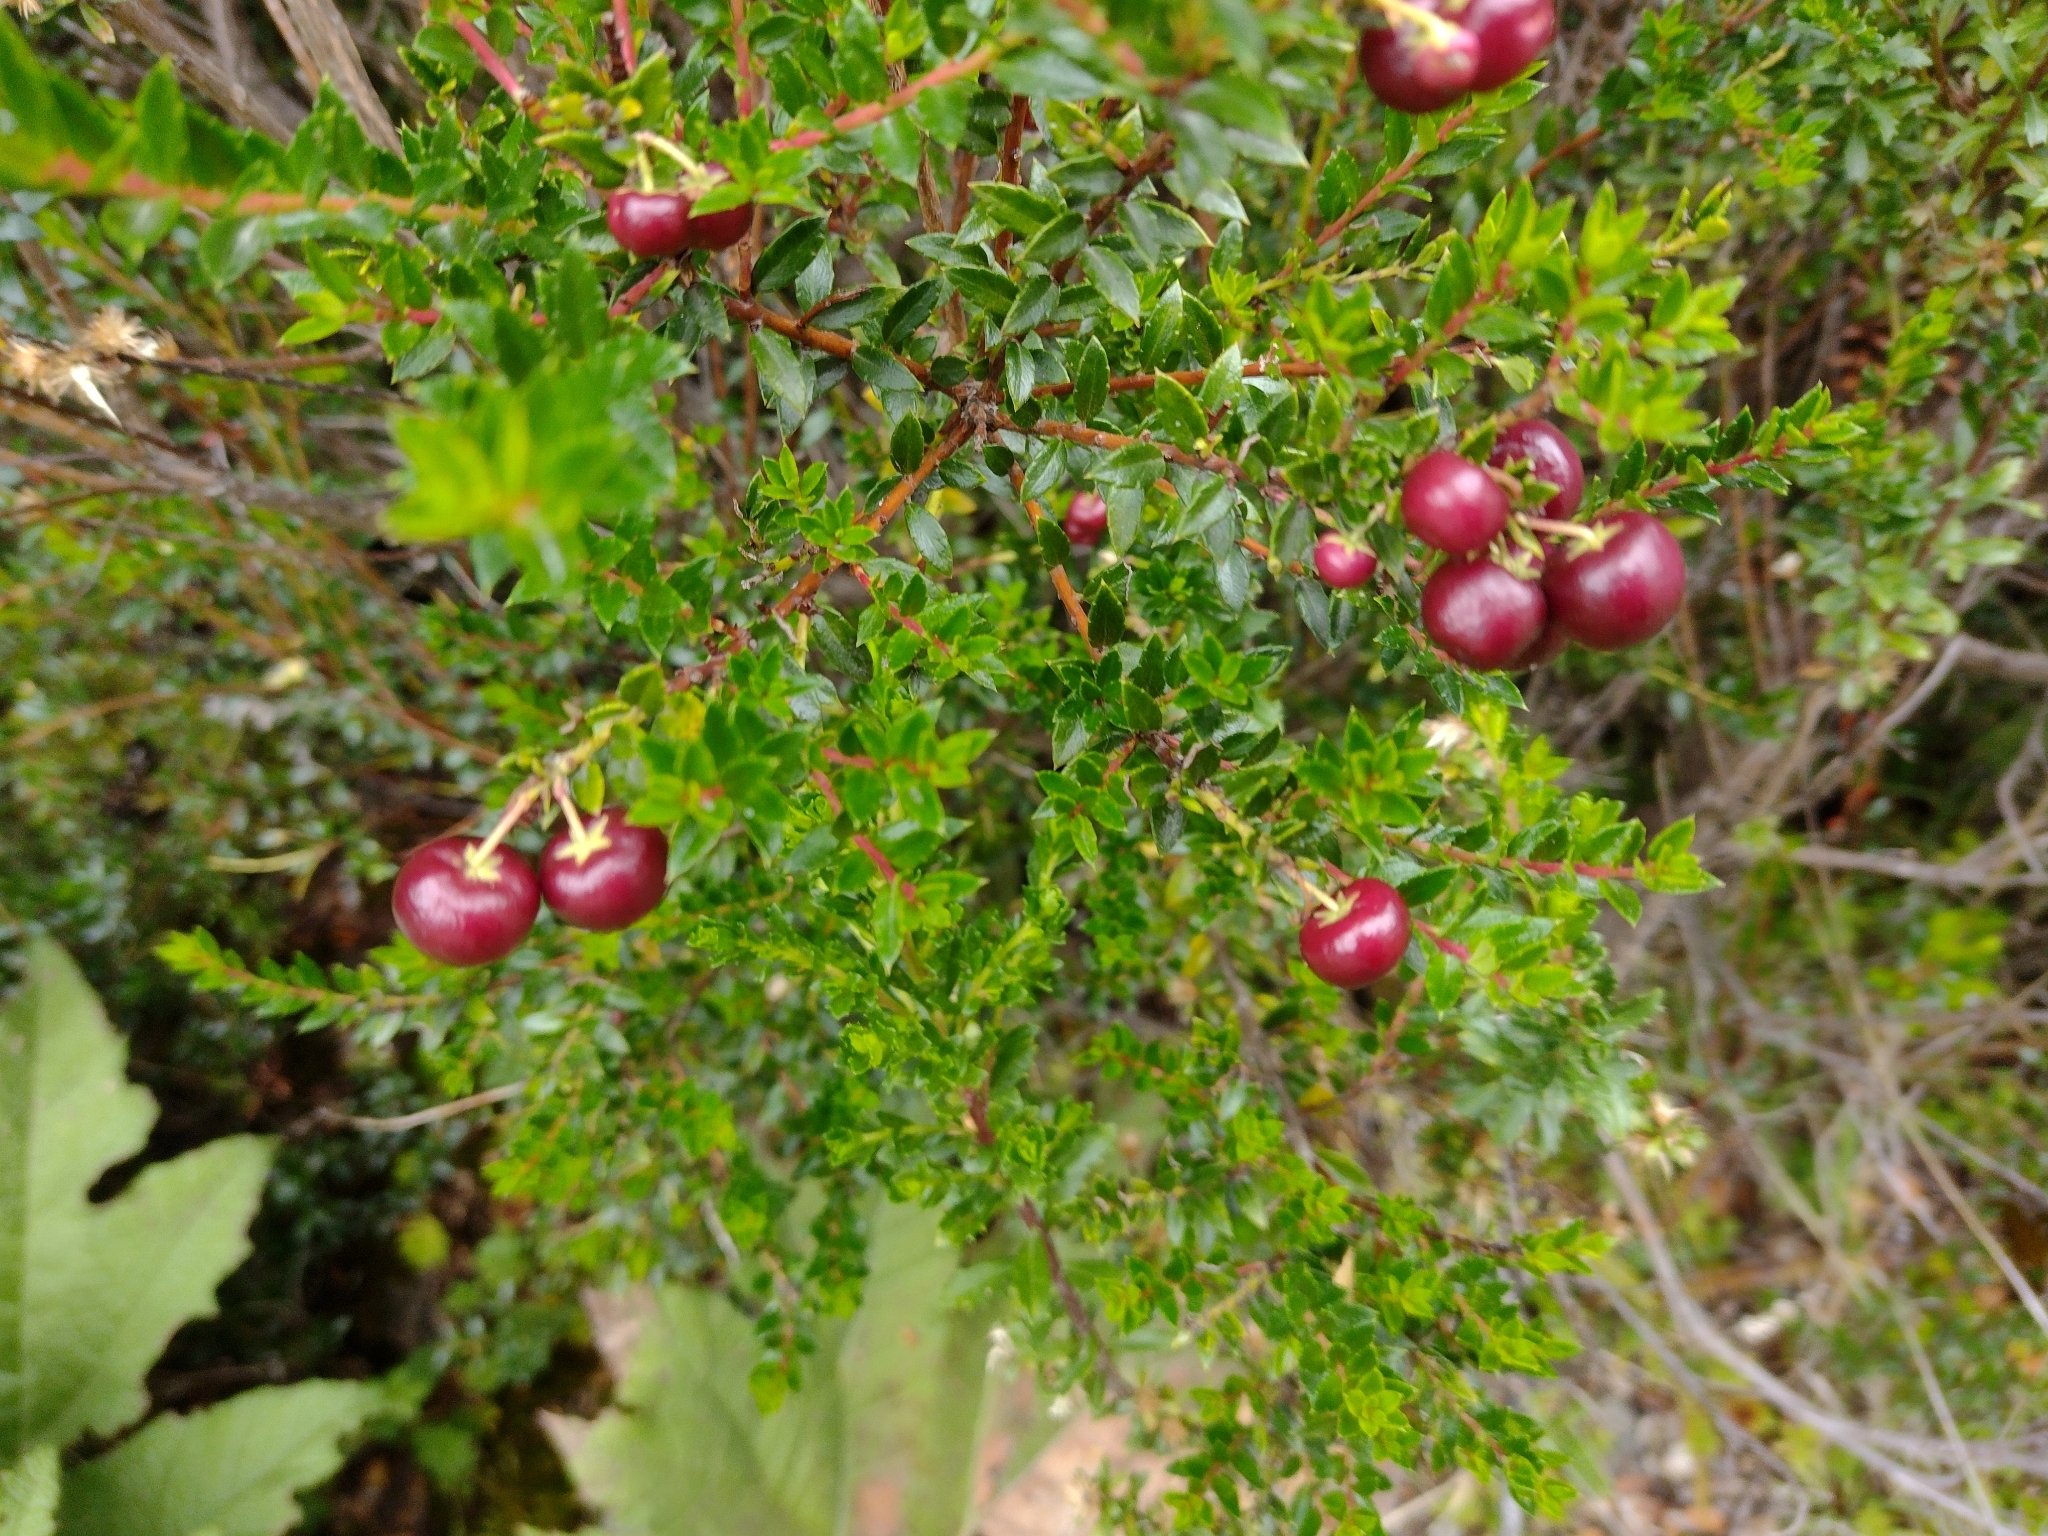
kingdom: Plantae
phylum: Tracheophyta
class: Magnoliopsida
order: Ericales
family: Ericaceae
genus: Gaultheria
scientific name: Gaultheria mucronata
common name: Prickly heath
